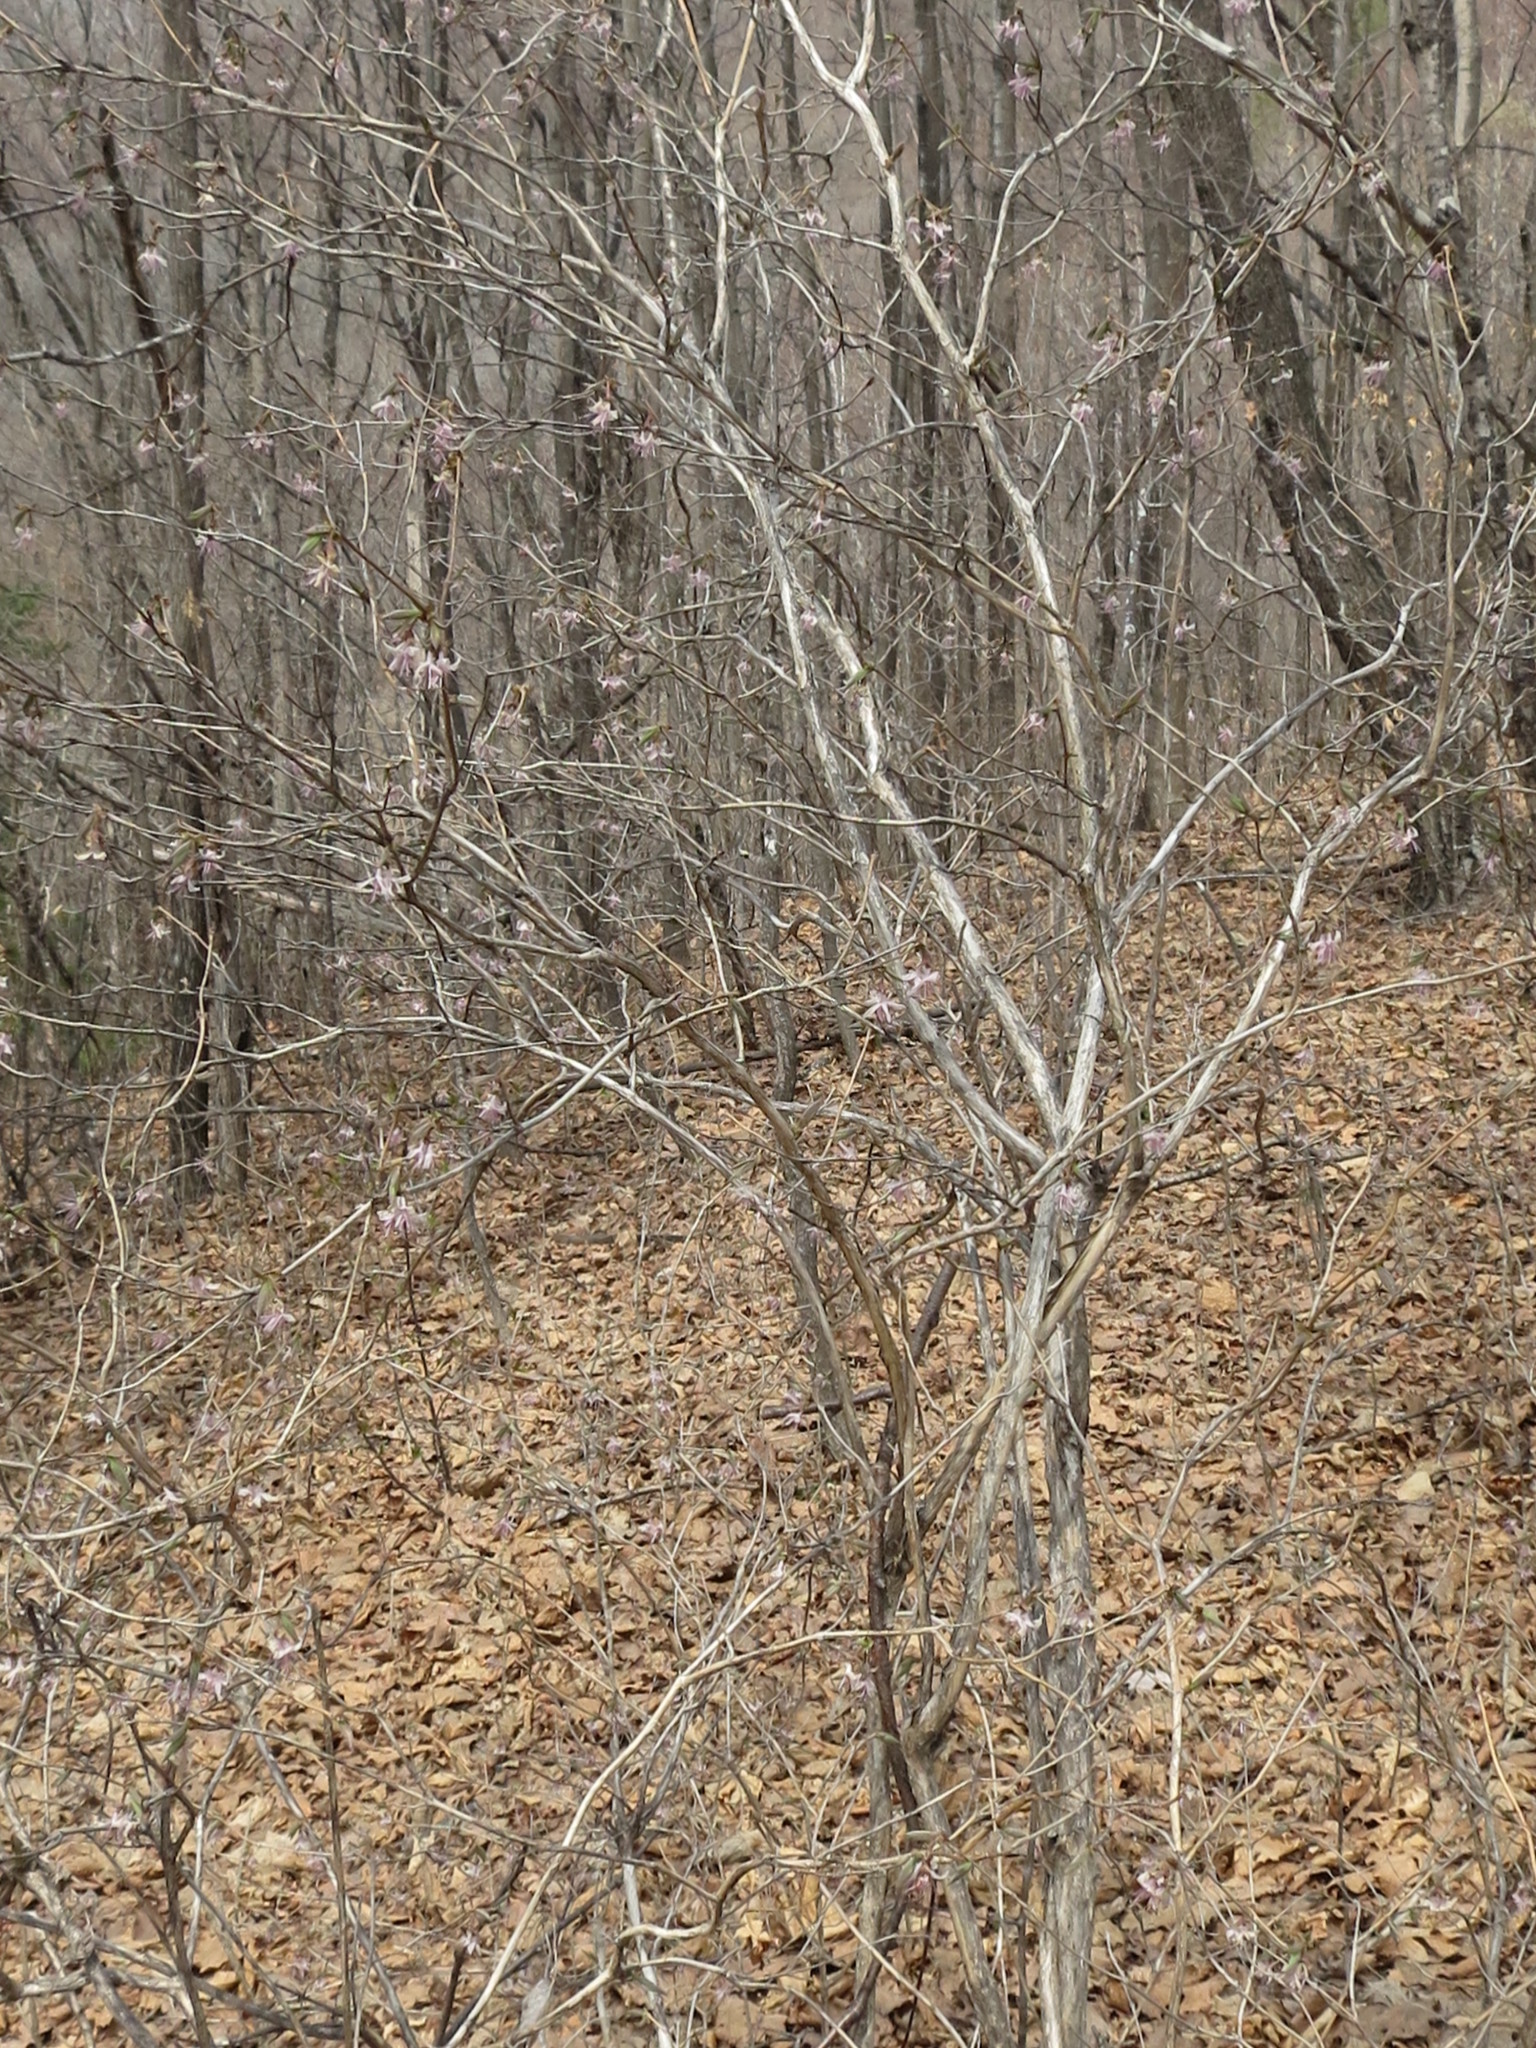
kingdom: Plantae
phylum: Tracheophyta
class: Magnoliopsida
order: Dipsacales
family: Caprifoliaceae
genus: Lonicera
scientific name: Lonicera praeflorens
